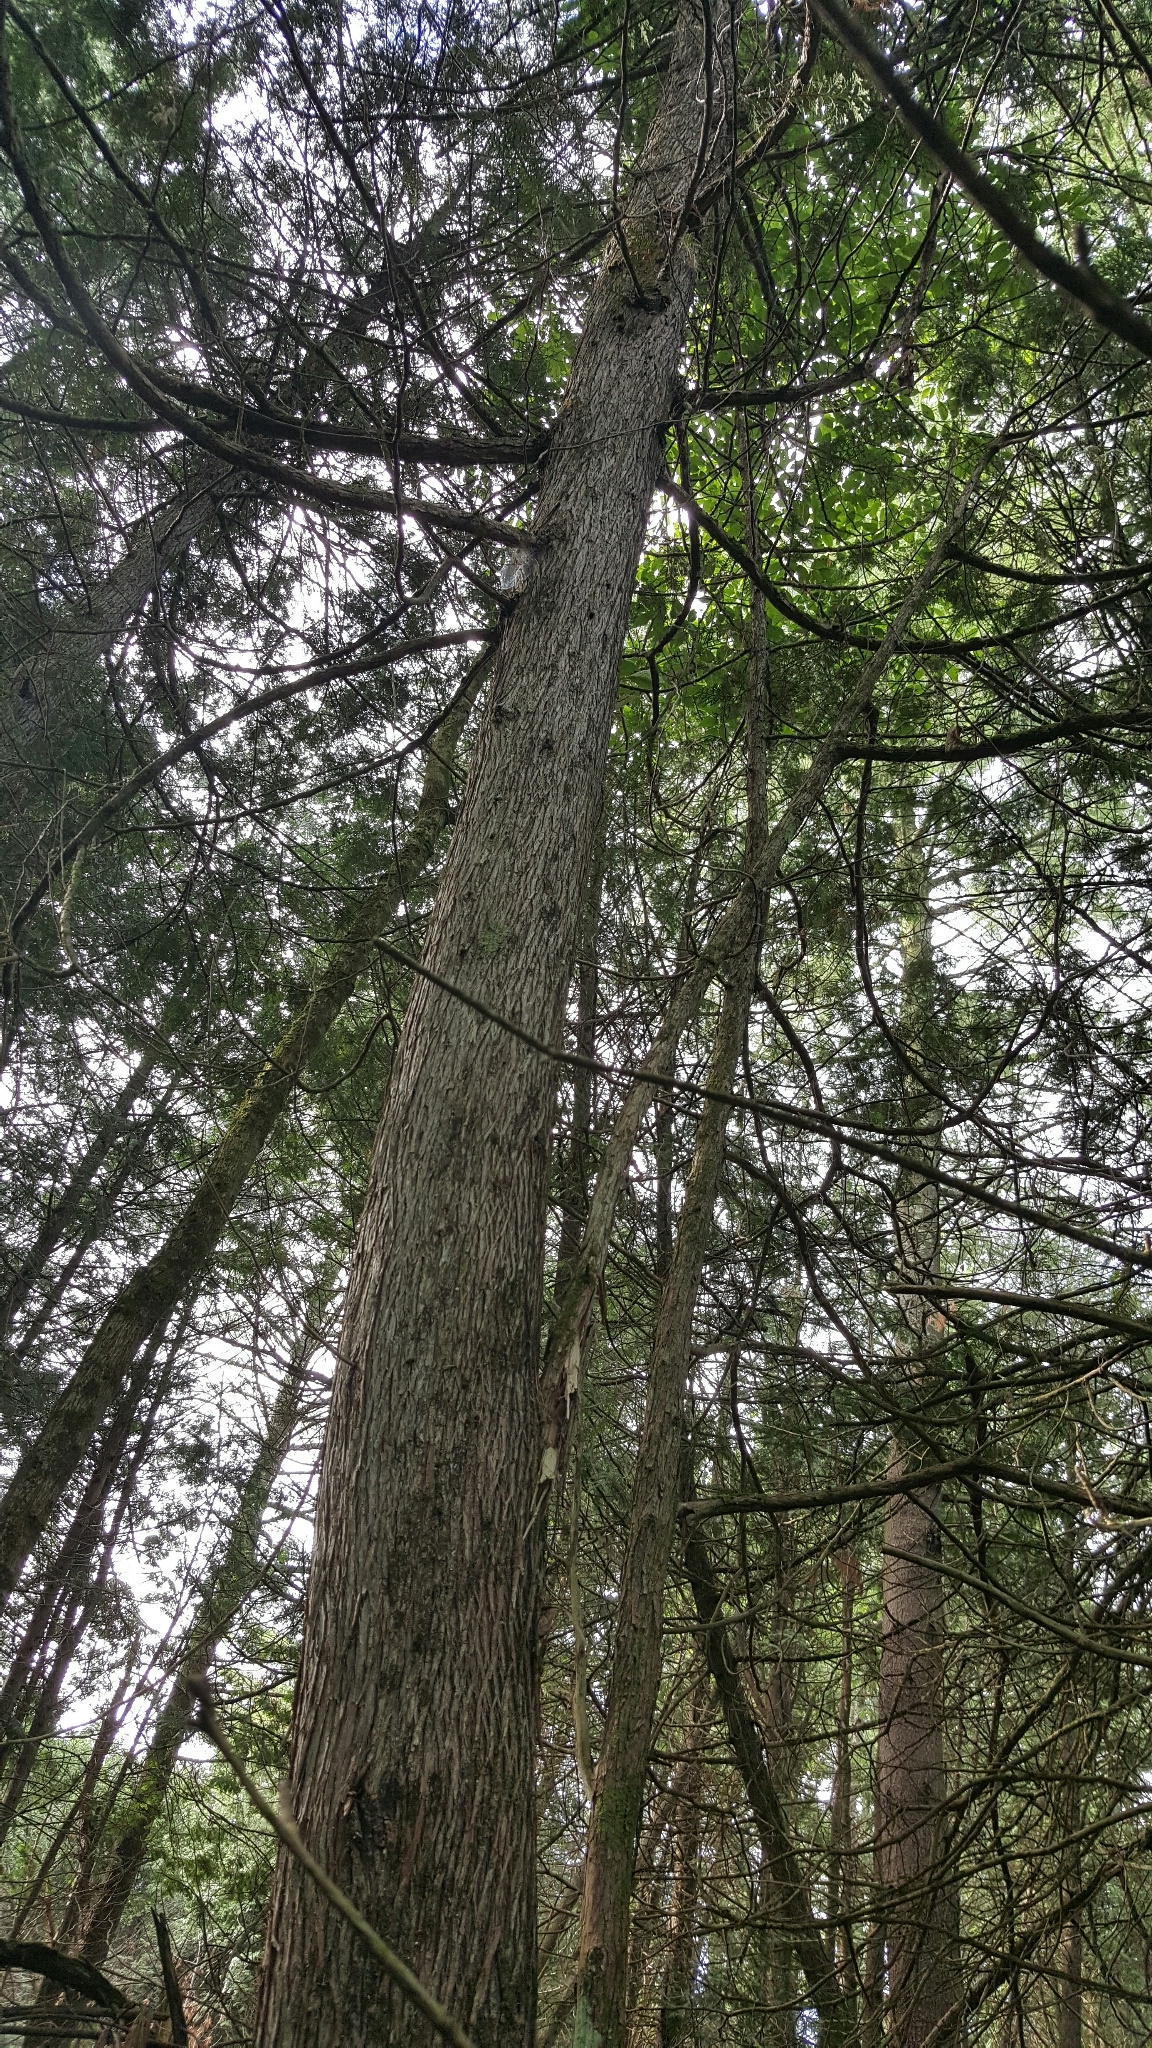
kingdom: Plantae
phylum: Tracheophyta
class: Pinopsida
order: Pinales
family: Cupressaceae
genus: Thuja
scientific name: Thuja occidentalis
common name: Northern white-cedar
